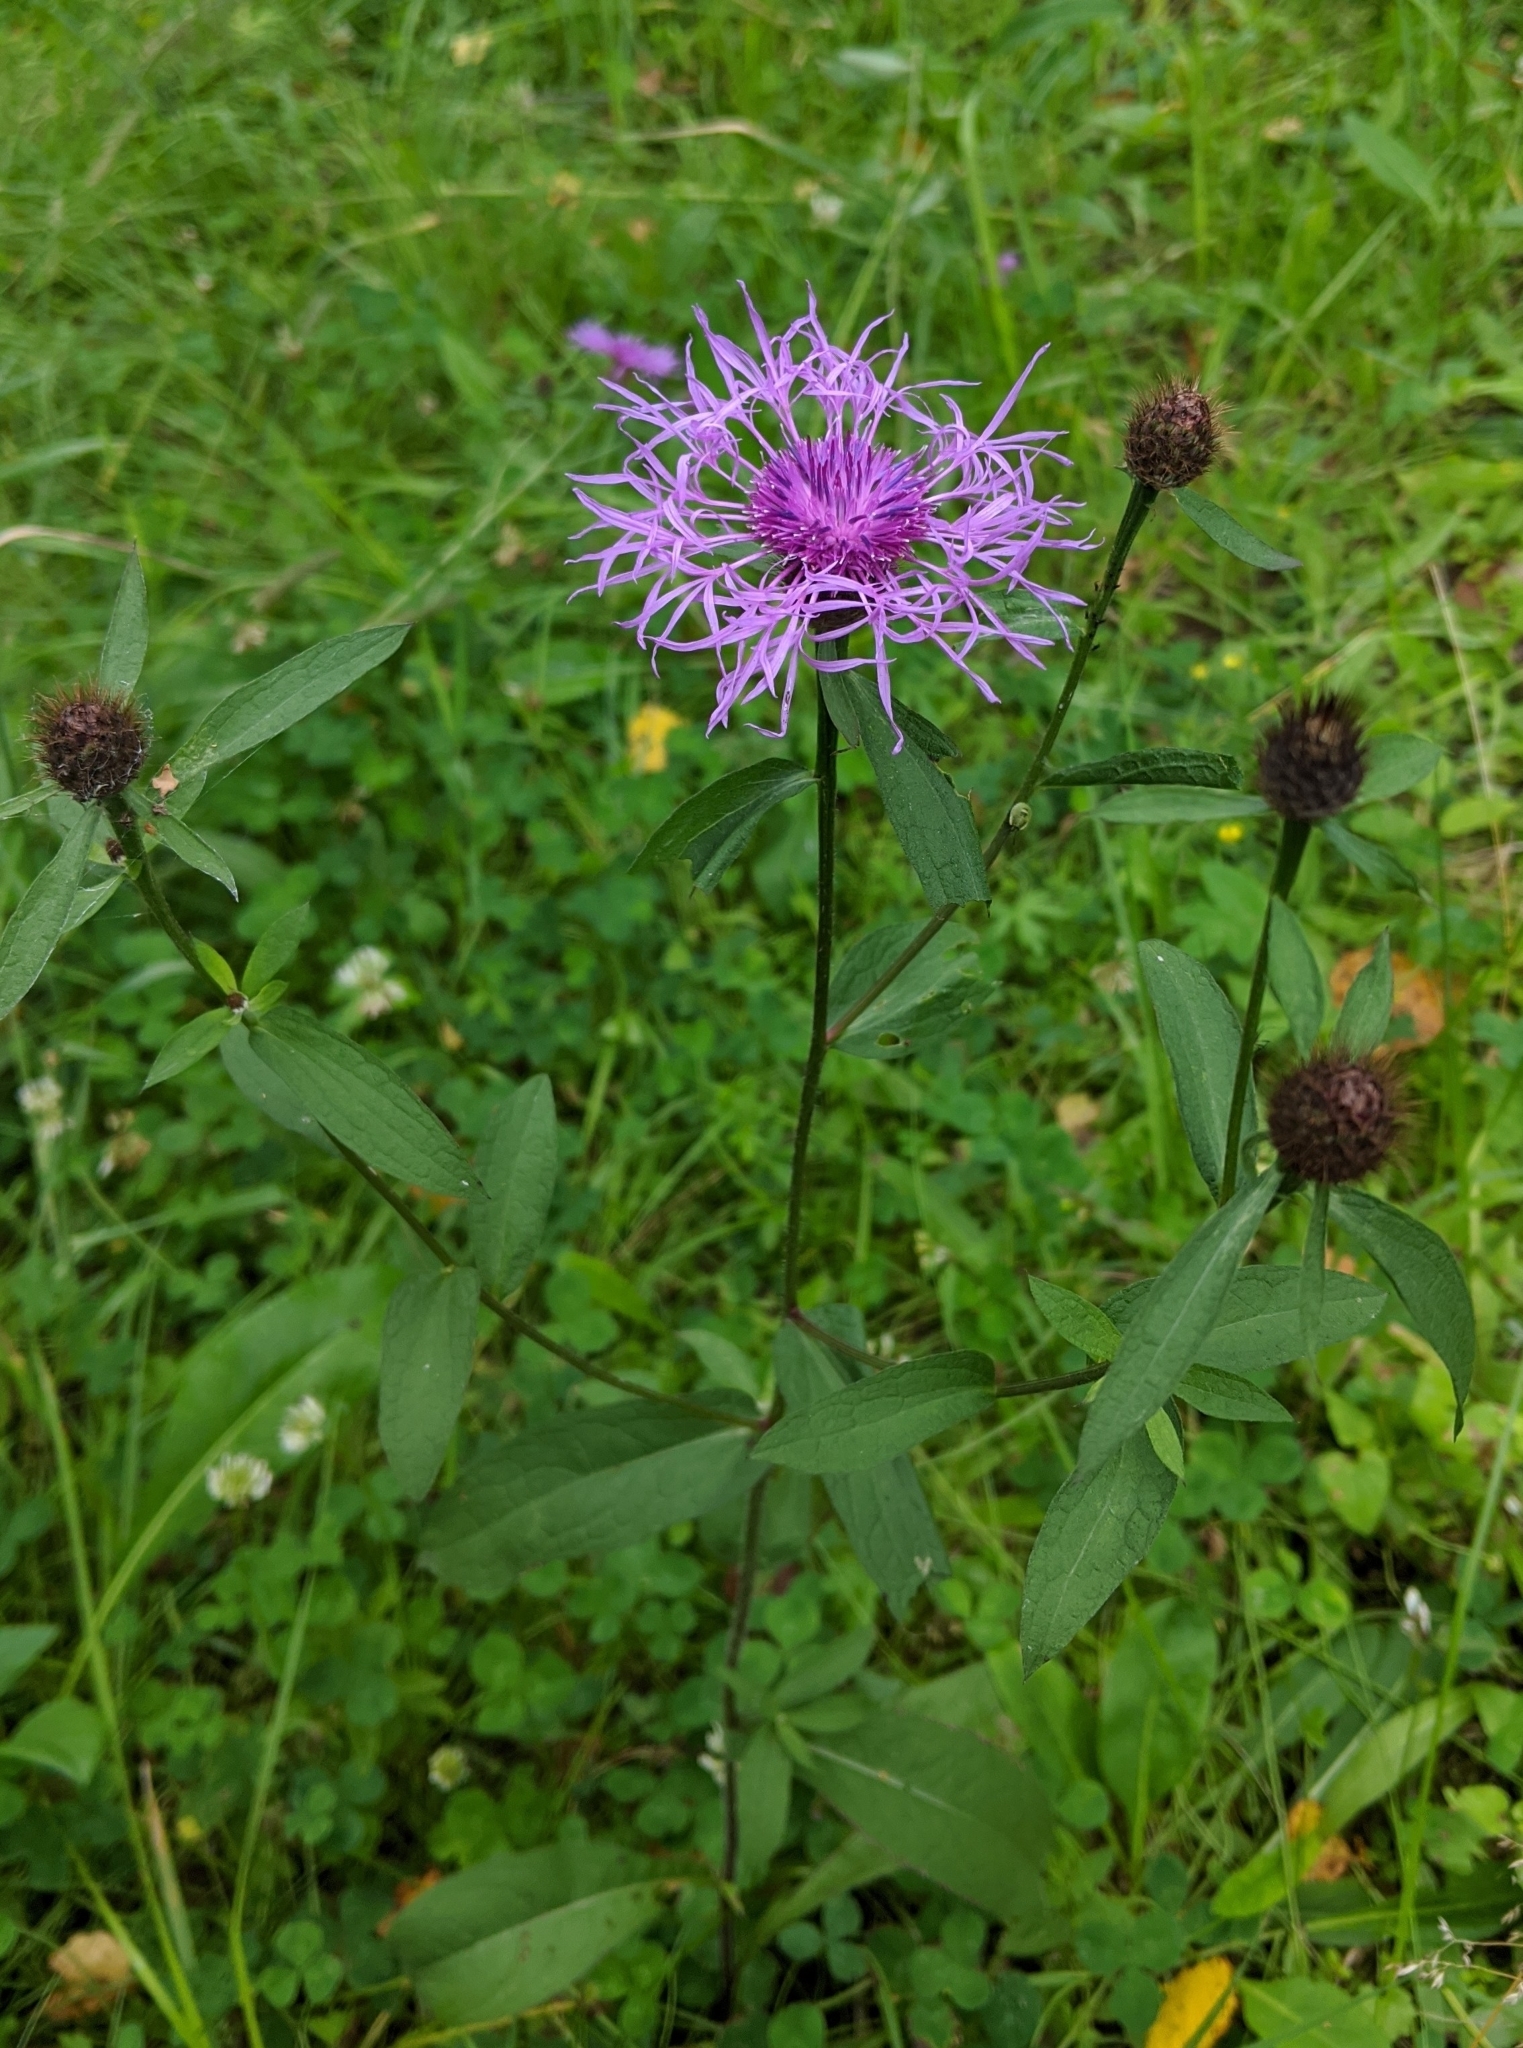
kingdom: Plantae
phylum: Tracheophyta
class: Magnoliopsida
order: Asterales
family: Asteraceae
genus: Centaurea
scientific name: Centaurea phrygia
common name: Wig knapweed
